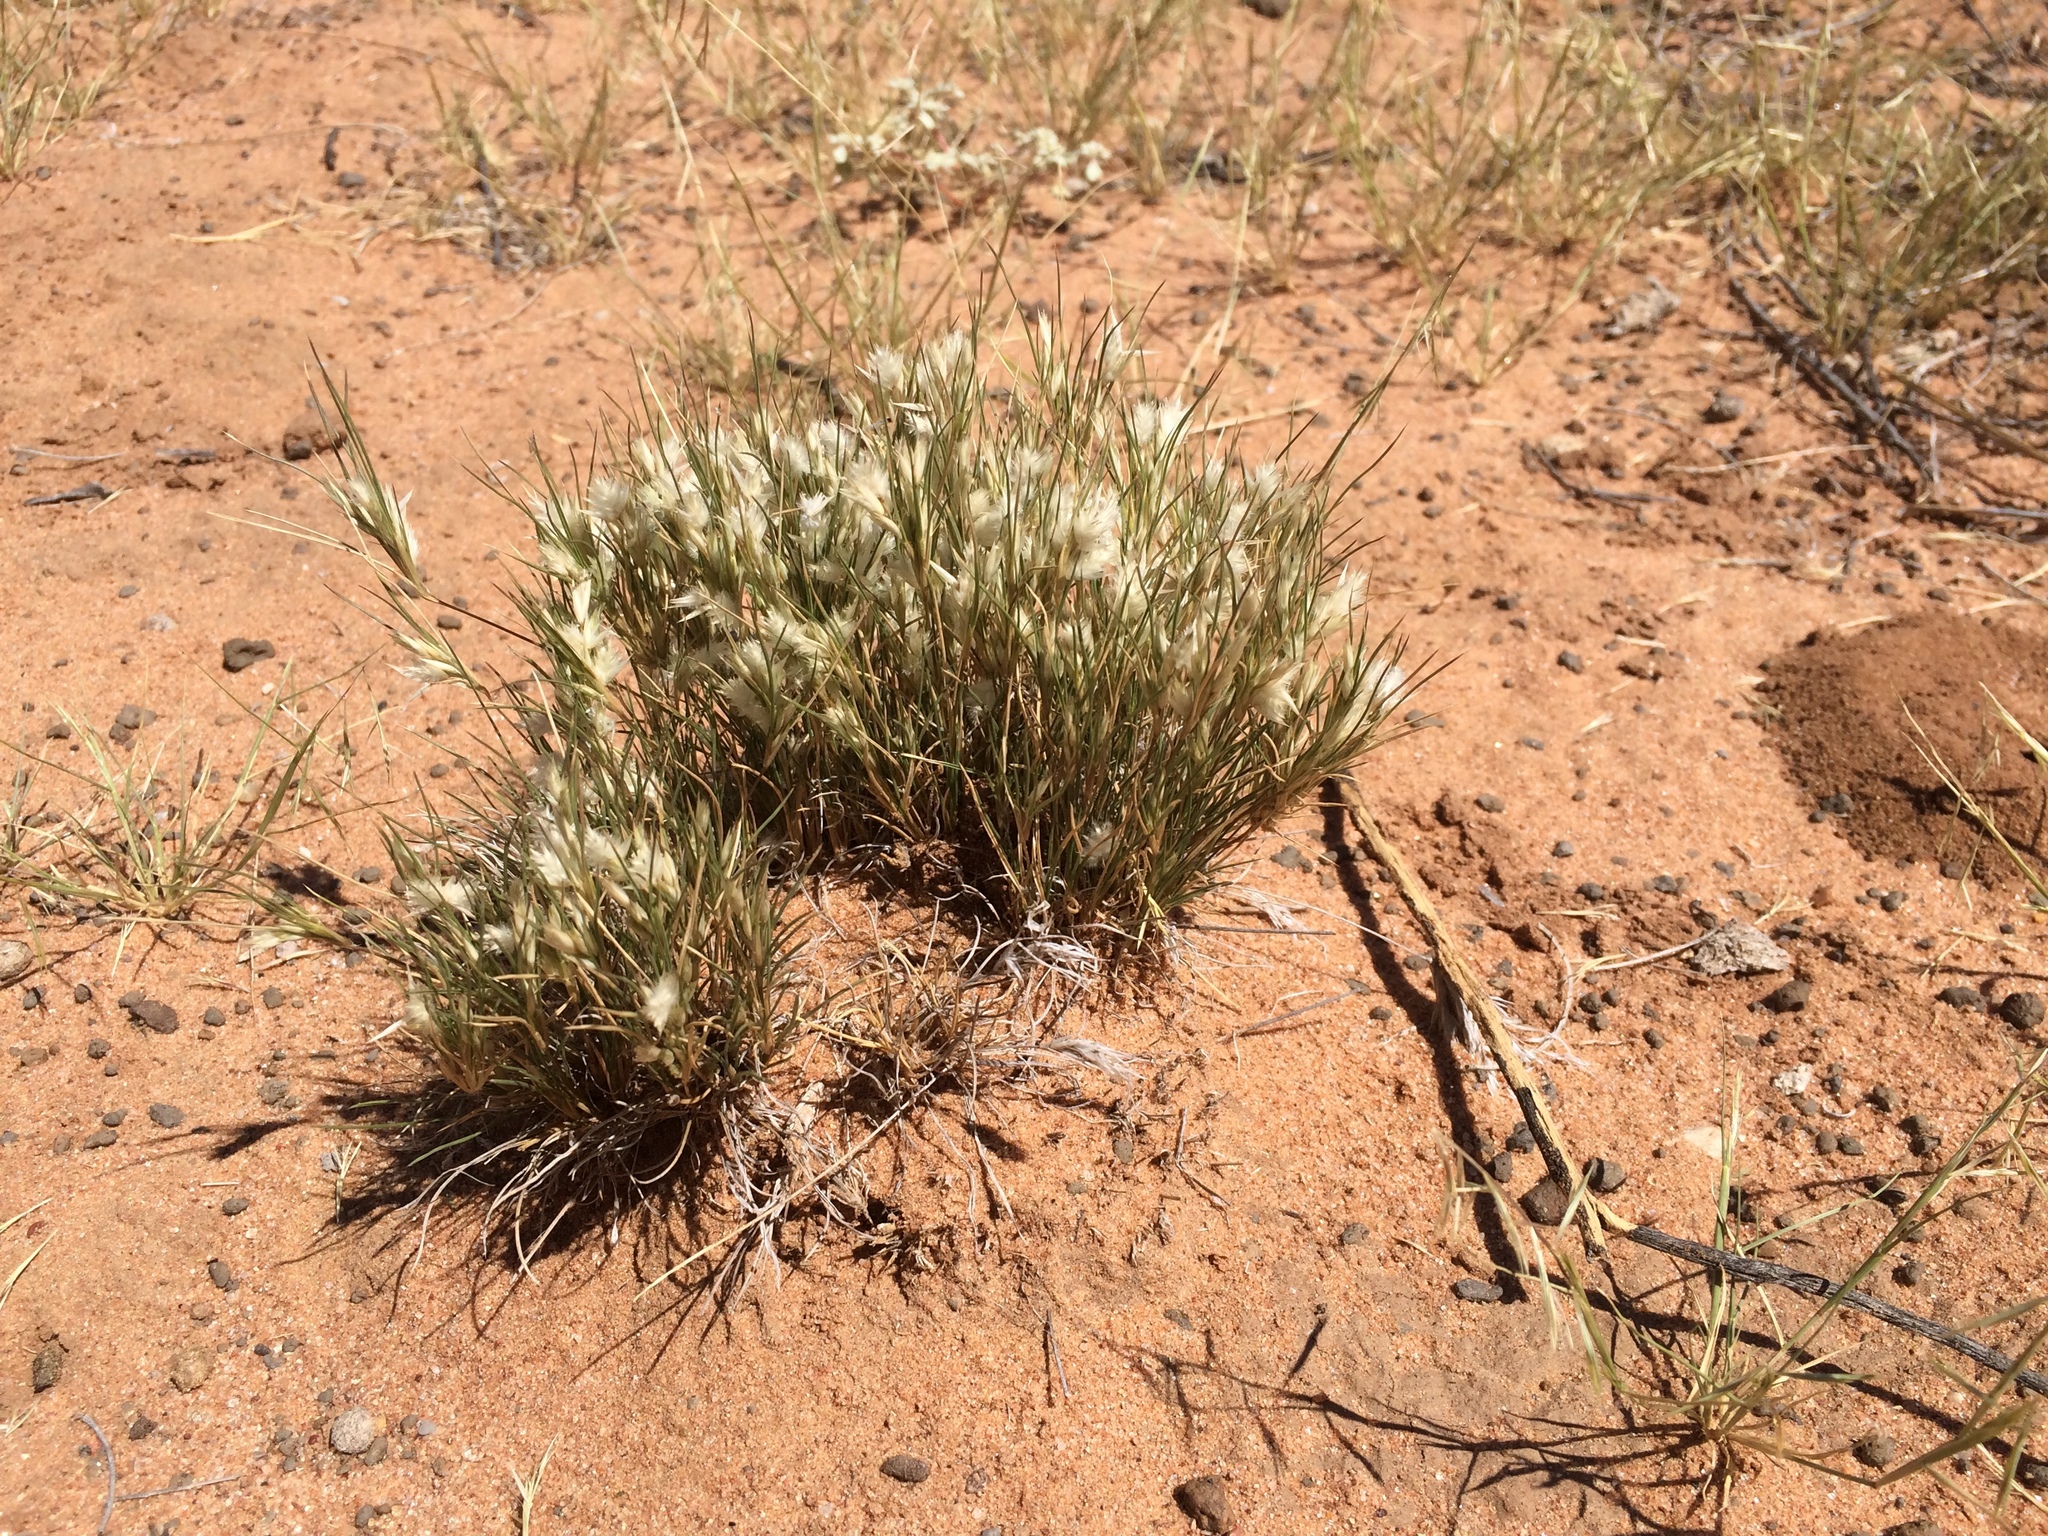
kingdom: Plantae
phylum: Tracheophyta
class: Liliopsida
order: Poales
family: Poaceae
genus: Dasyochloa
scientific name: Dasyochloa pulchella
